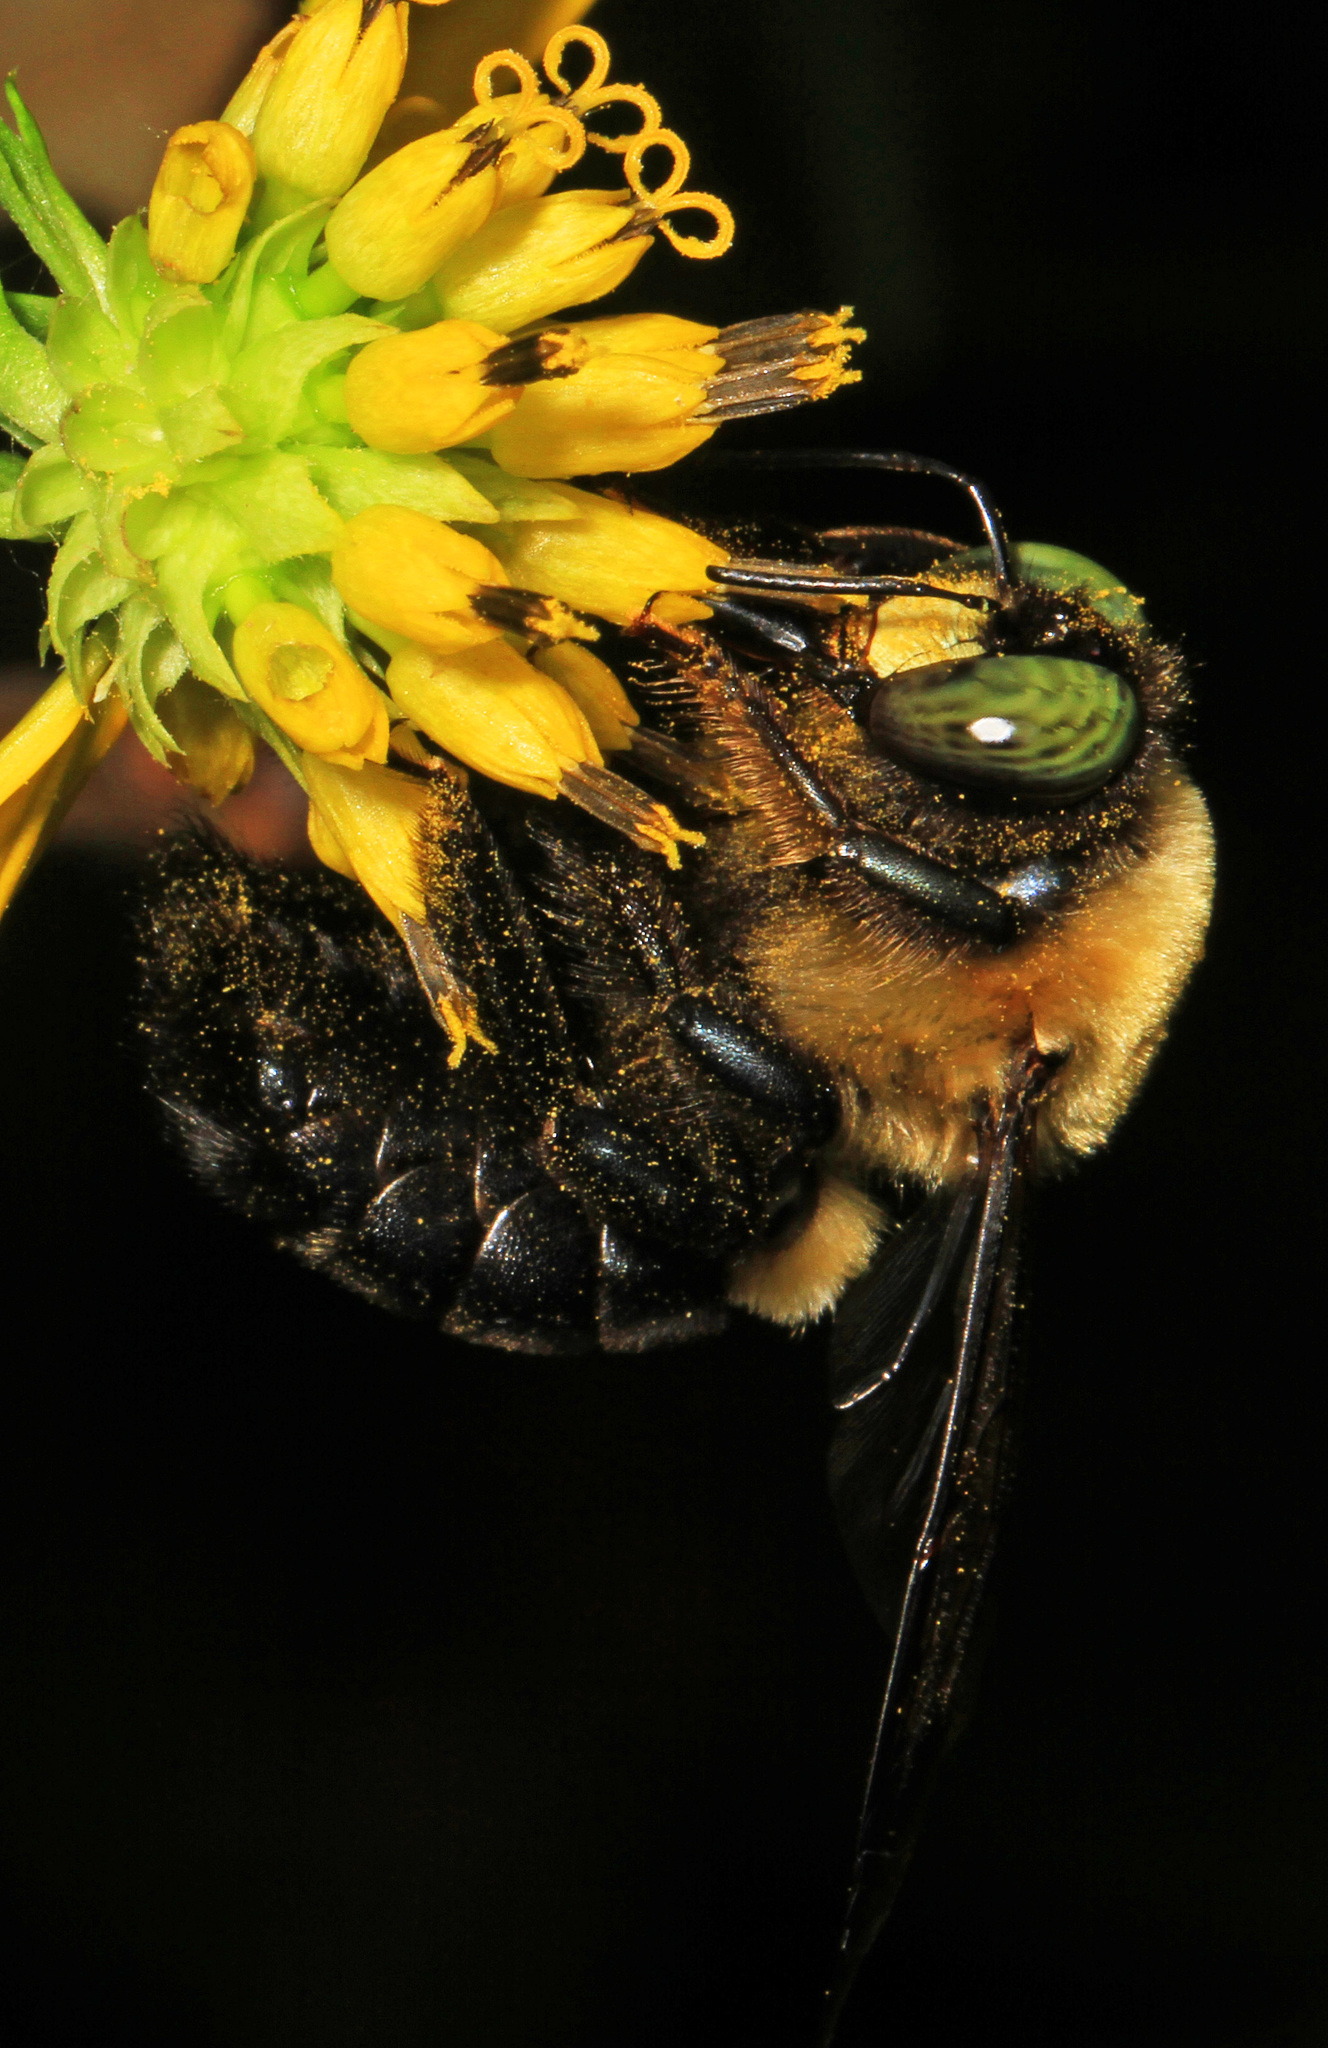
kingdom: Animalia
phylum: Arthropoda
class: Insecta
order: Hymenoptera
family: Apidae
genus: Xylocopa
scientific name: Xylocopa virginica
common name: Carpenter bee
